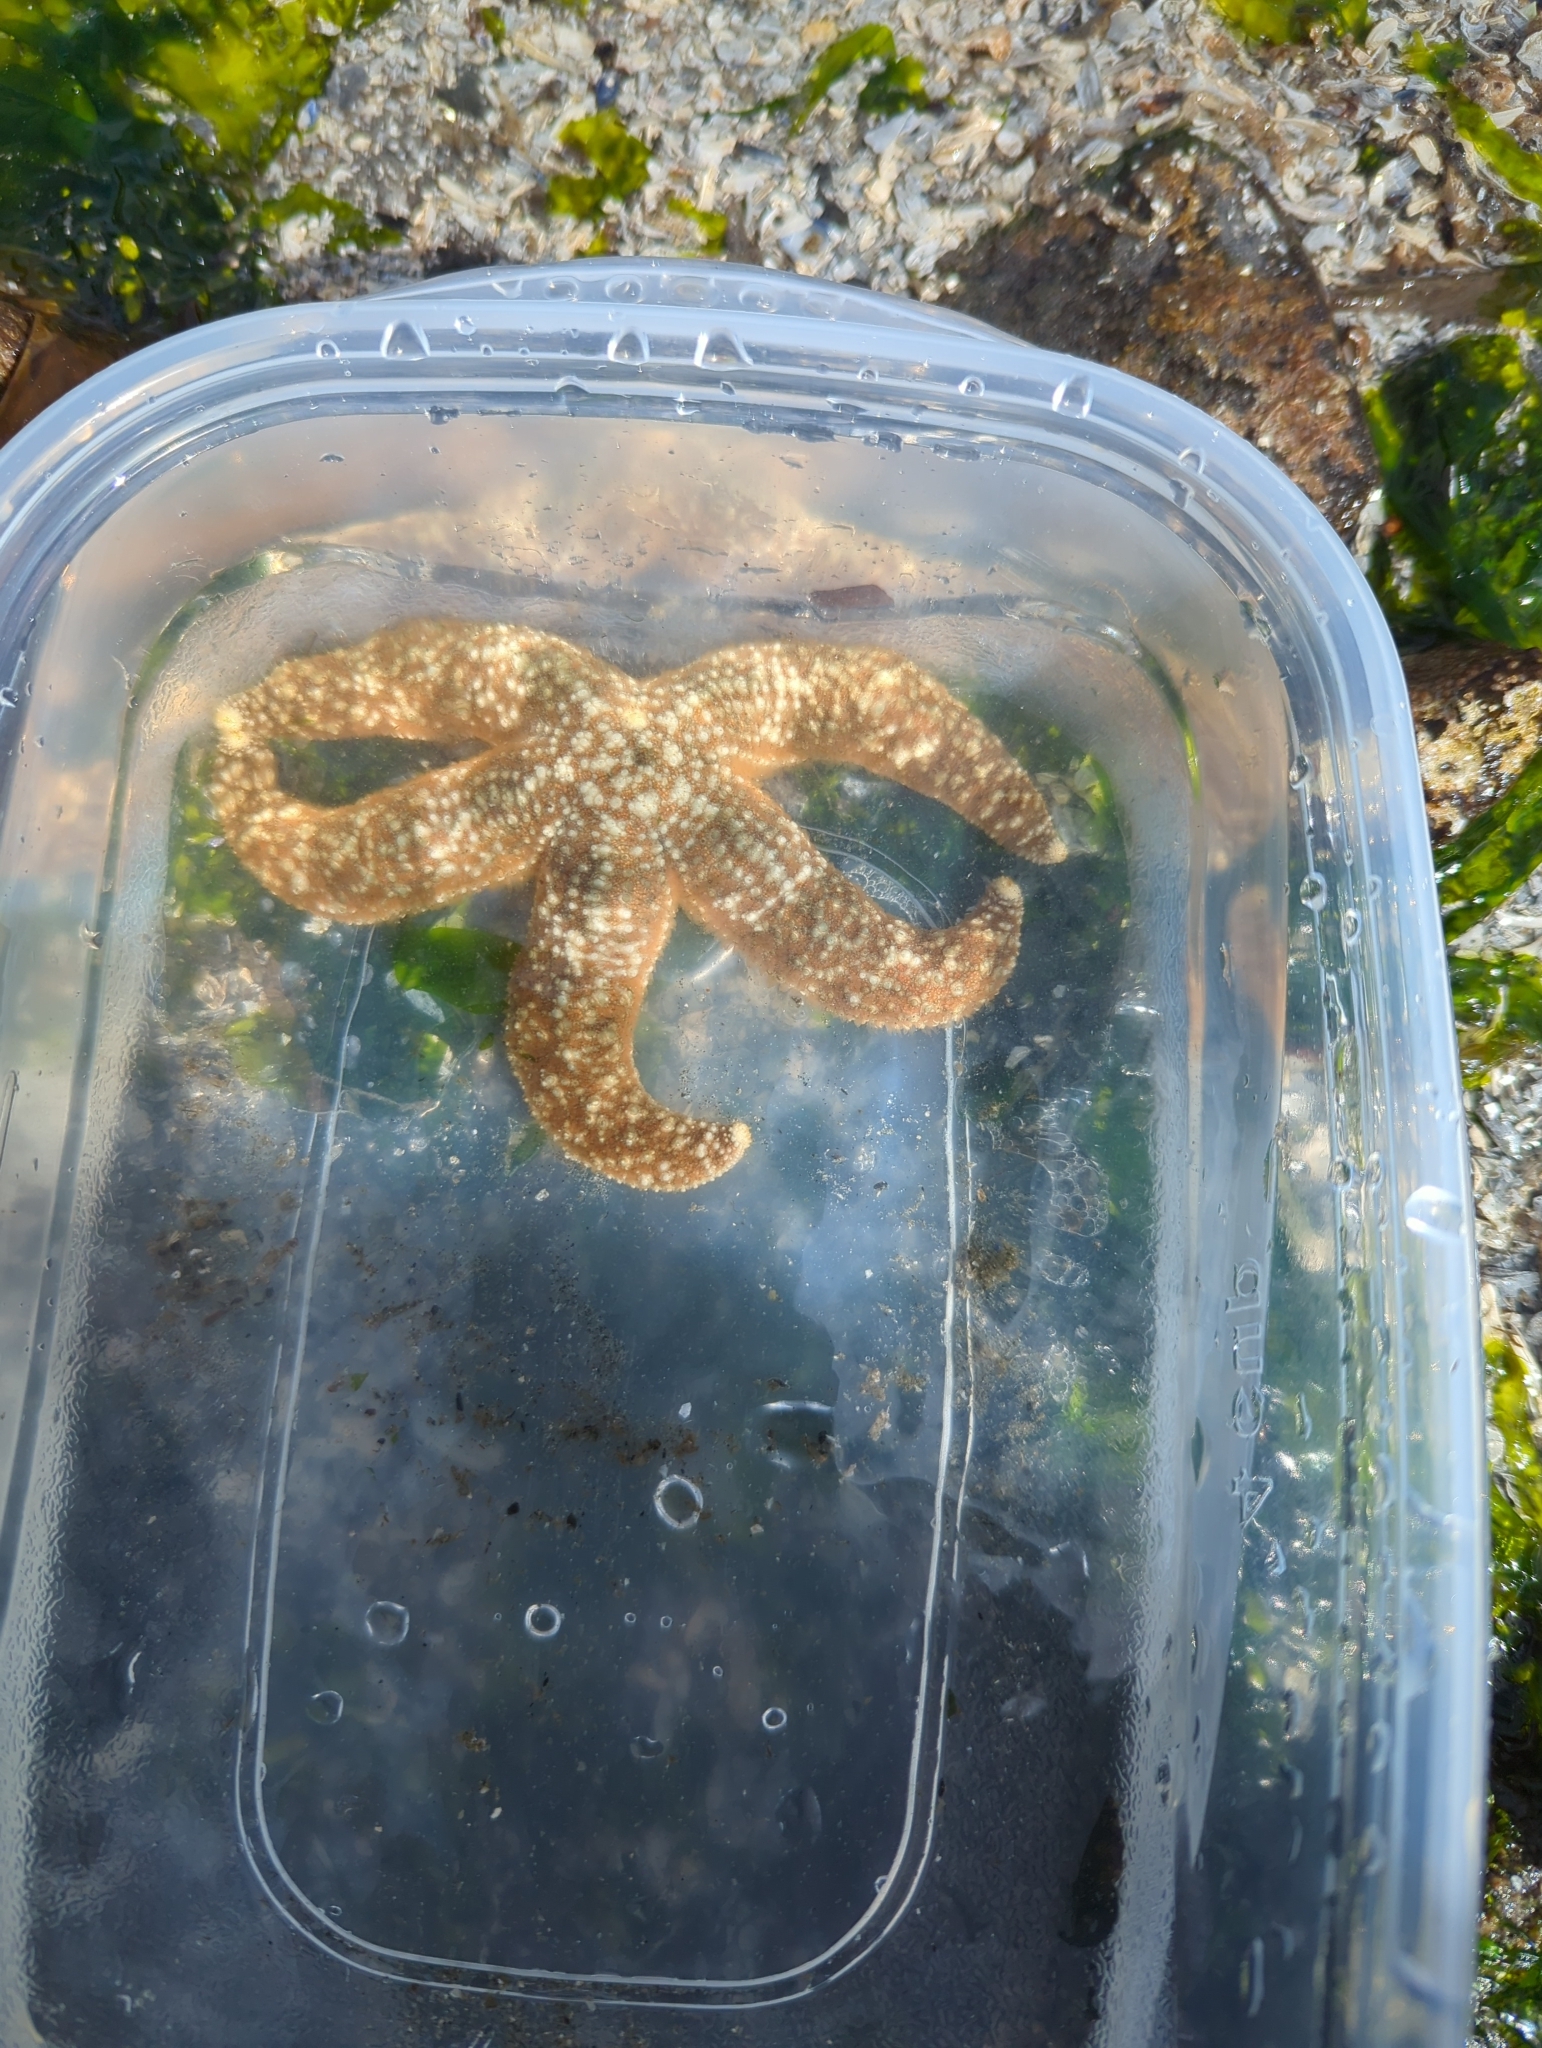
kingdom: Animalia
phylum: Echinodermata
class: Asteroidea
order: Forcipulatida
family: Asteriidae
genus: Evasterias
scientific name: Evasterias troschelii
